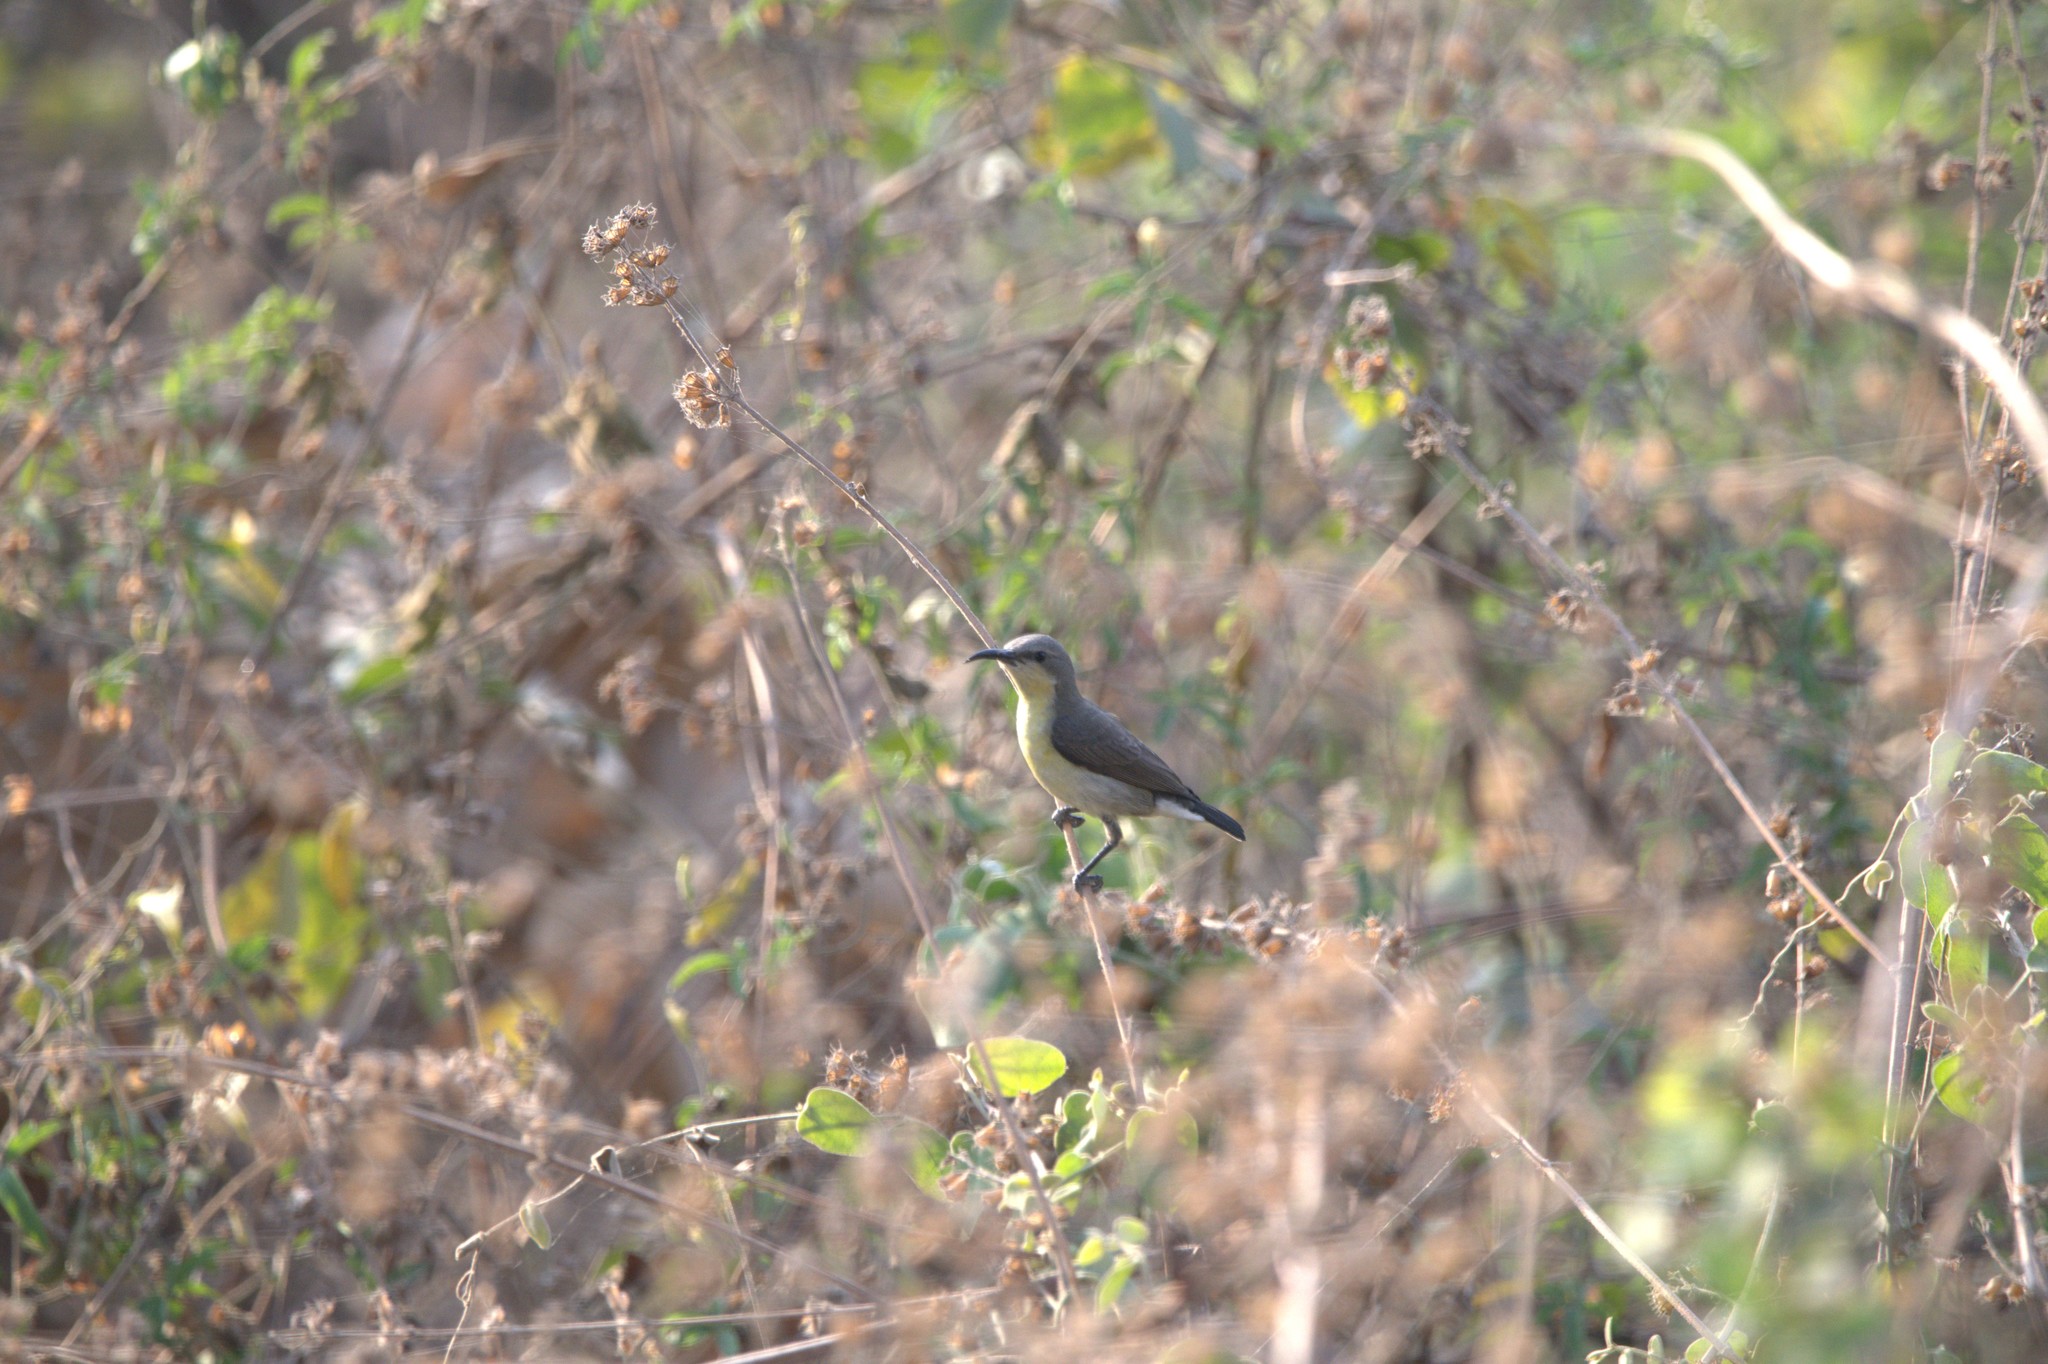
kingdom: Animalia
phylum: Chordata
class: Aves
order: Passeriformes
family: Nectariniidae
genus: Cinnyris
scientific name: Cinnyris asiaticus
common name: Purple sunbird
